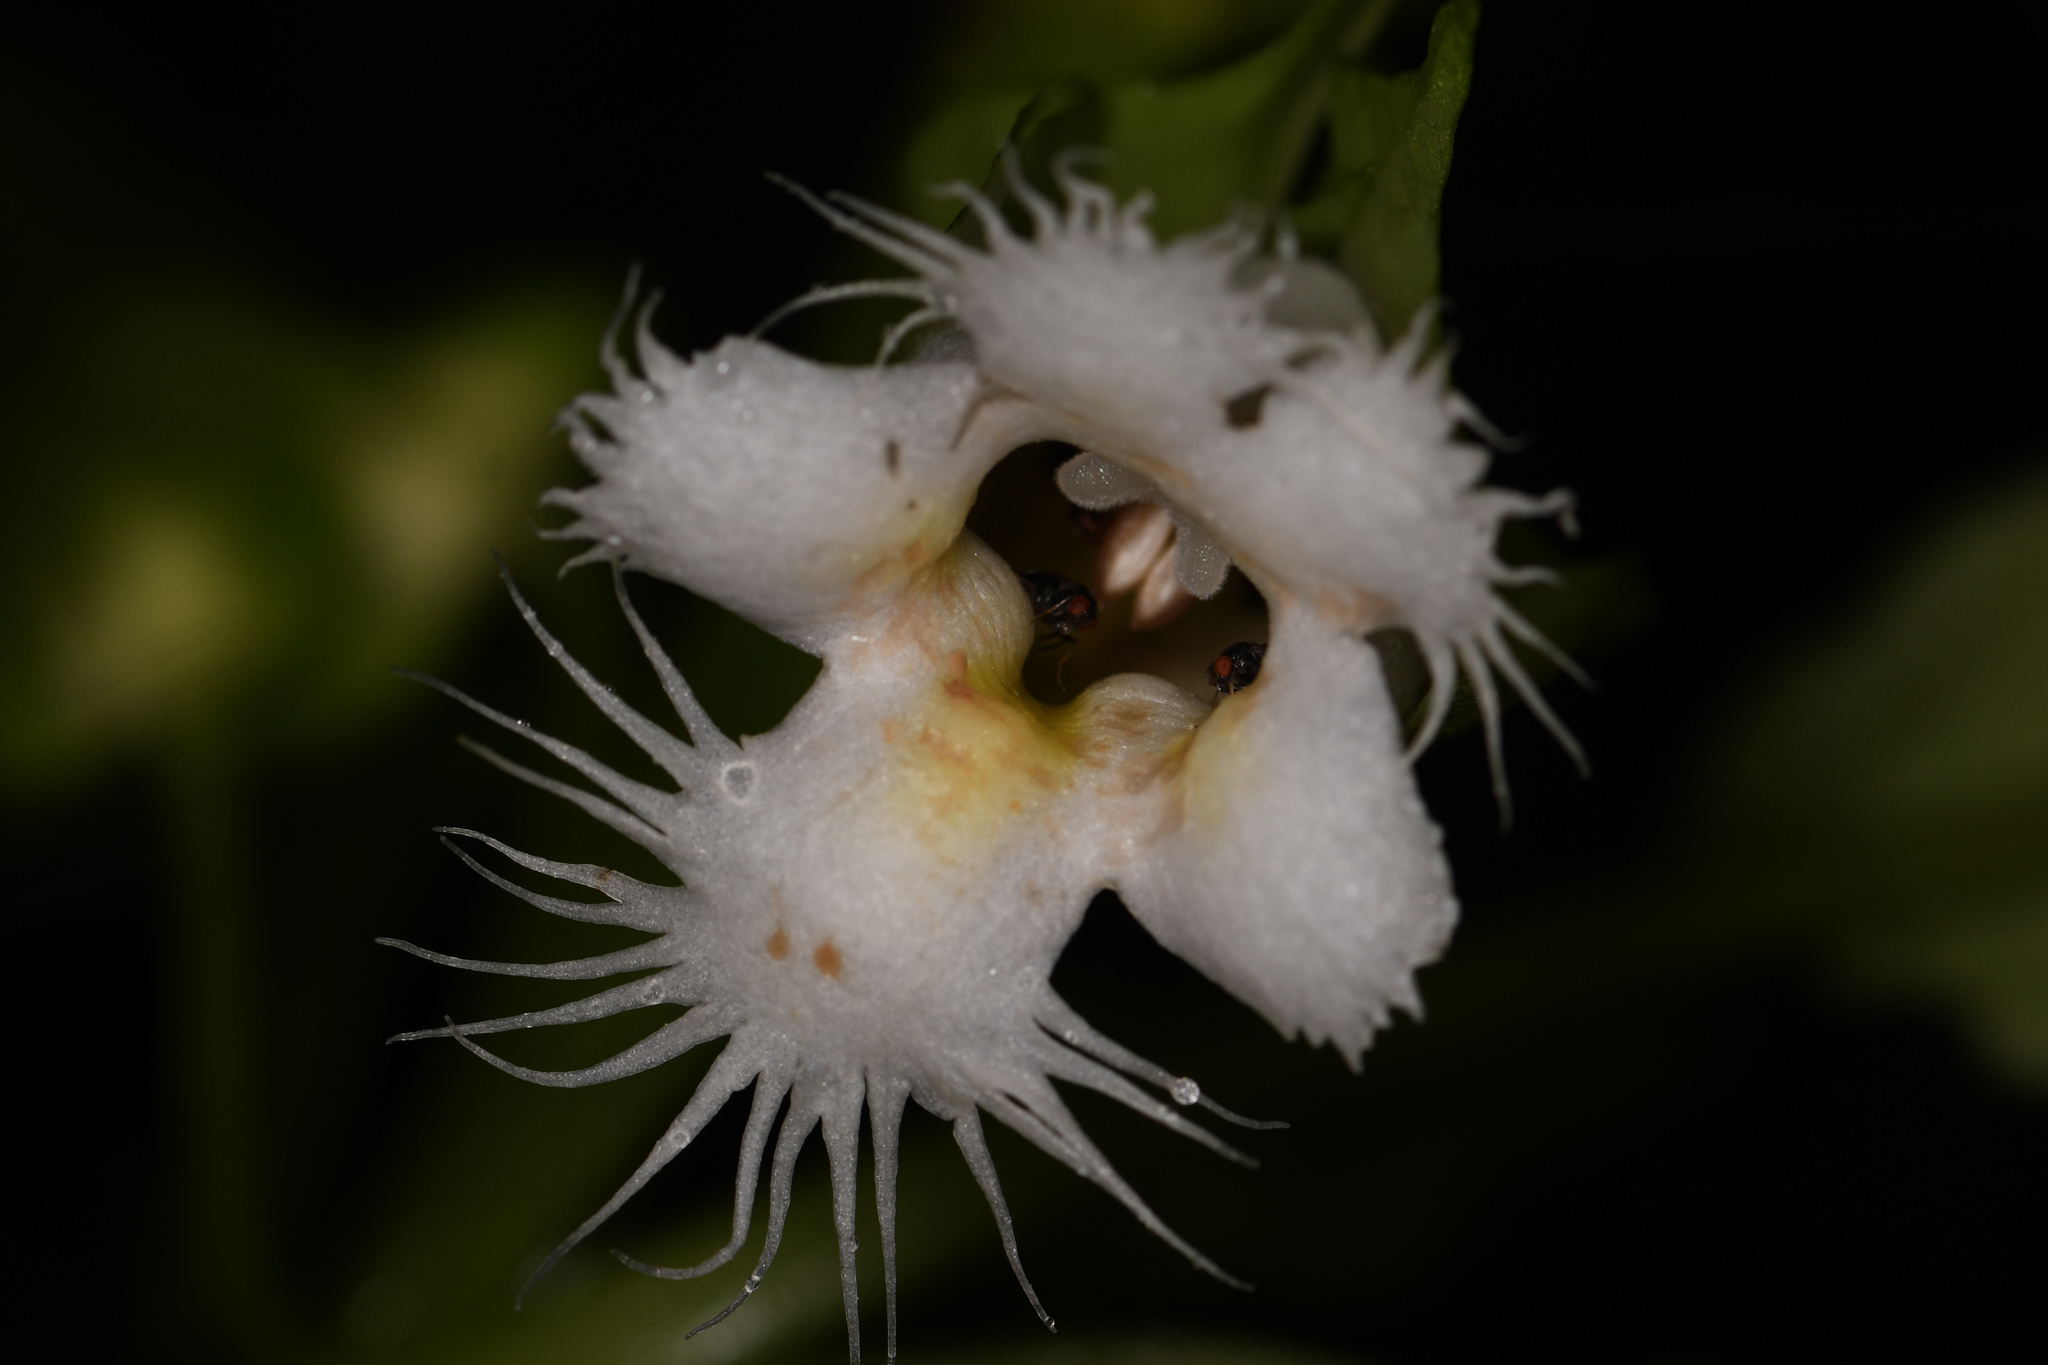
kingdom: Plantae
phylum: Tracheophyta
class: Magnoliopsida
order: Lamiales
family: Gesneriaceae
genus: Drymonia
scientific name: Drymonia lanceolata
